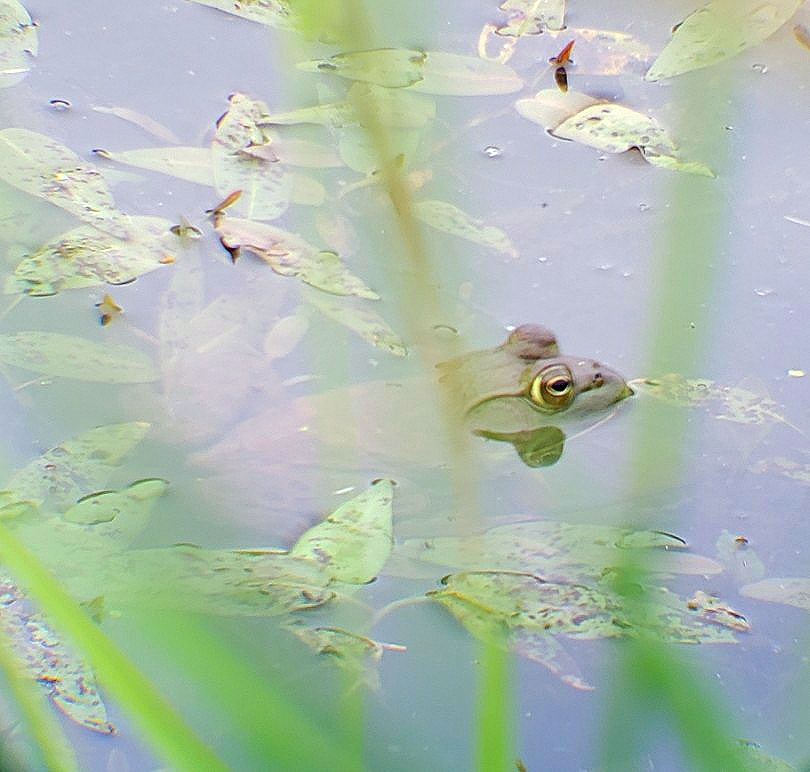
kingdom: Animalia
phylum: Chordata
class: Amphibia
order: Anura
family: Ranidae
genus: Lithobates
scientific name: Lithobates catesbeianus
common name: American bullfrog
